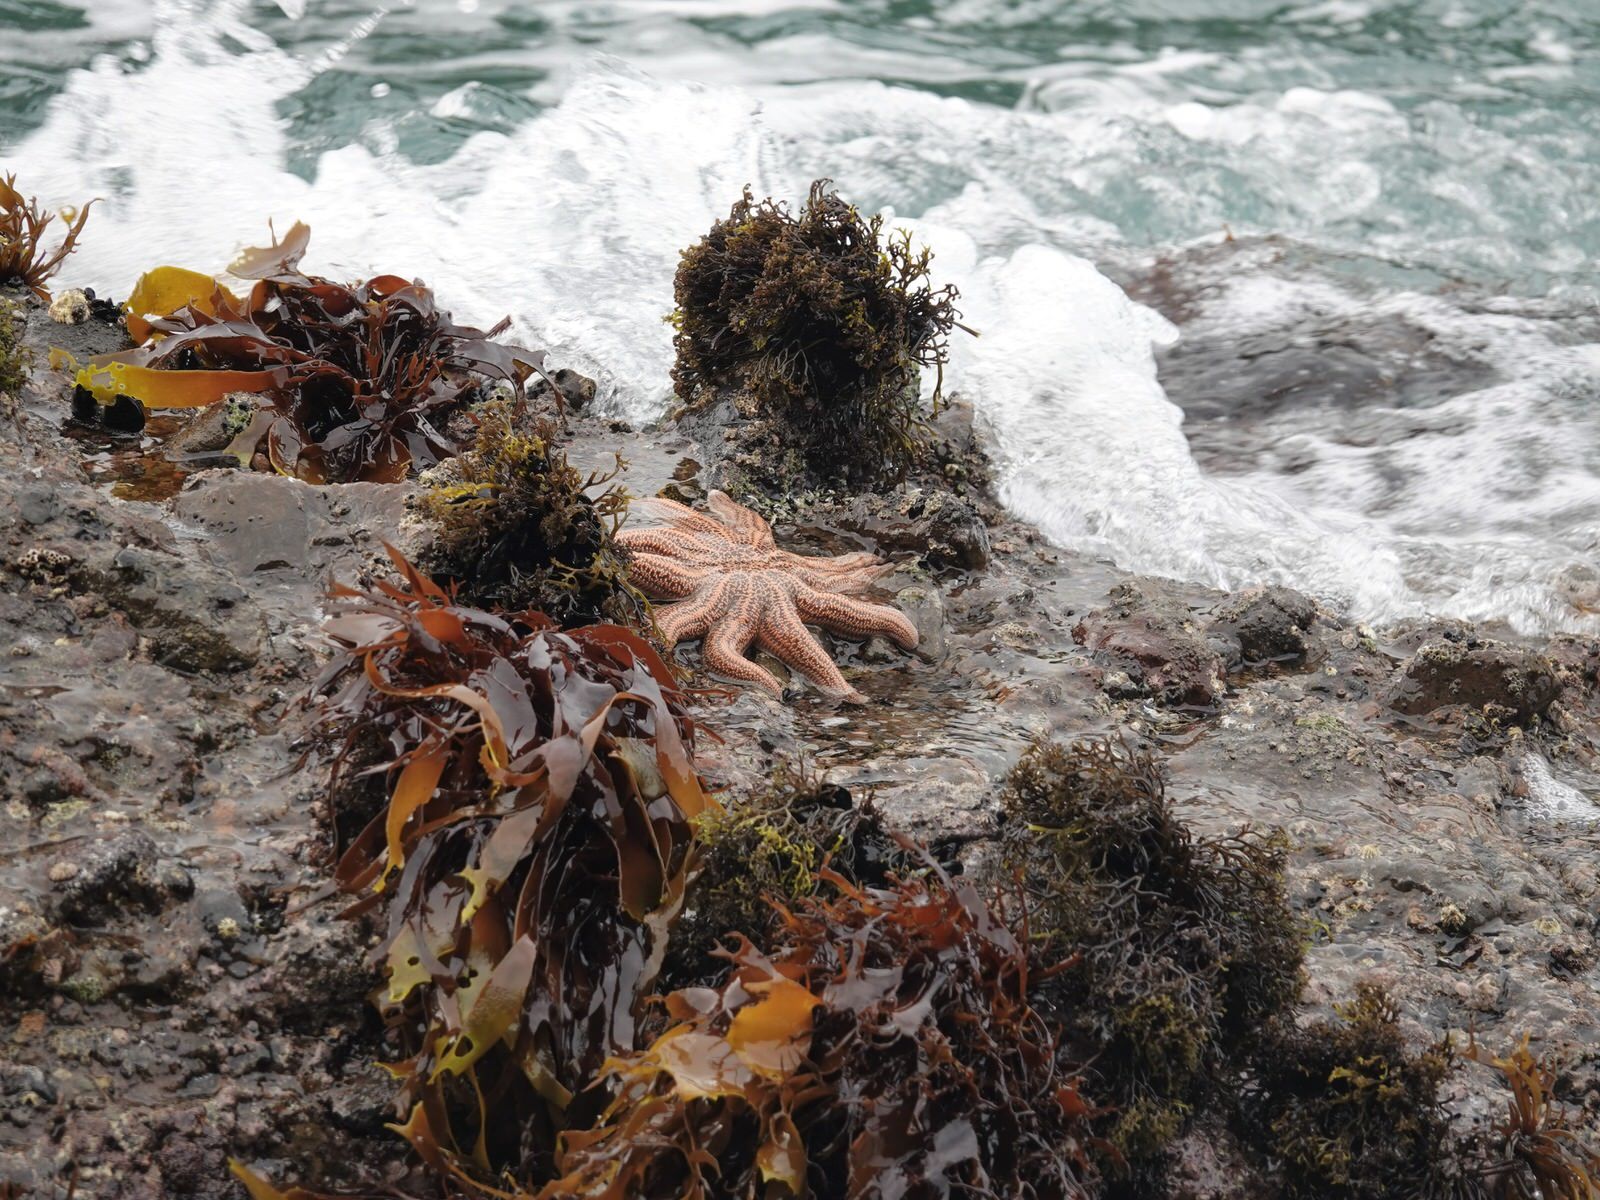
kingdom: Animalia
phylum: Echinodermata
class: Asteroidea
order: Forcipulatida
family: Stichasteridae
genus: Stichaster
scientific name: Stichaster australis
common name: Reef starfish
